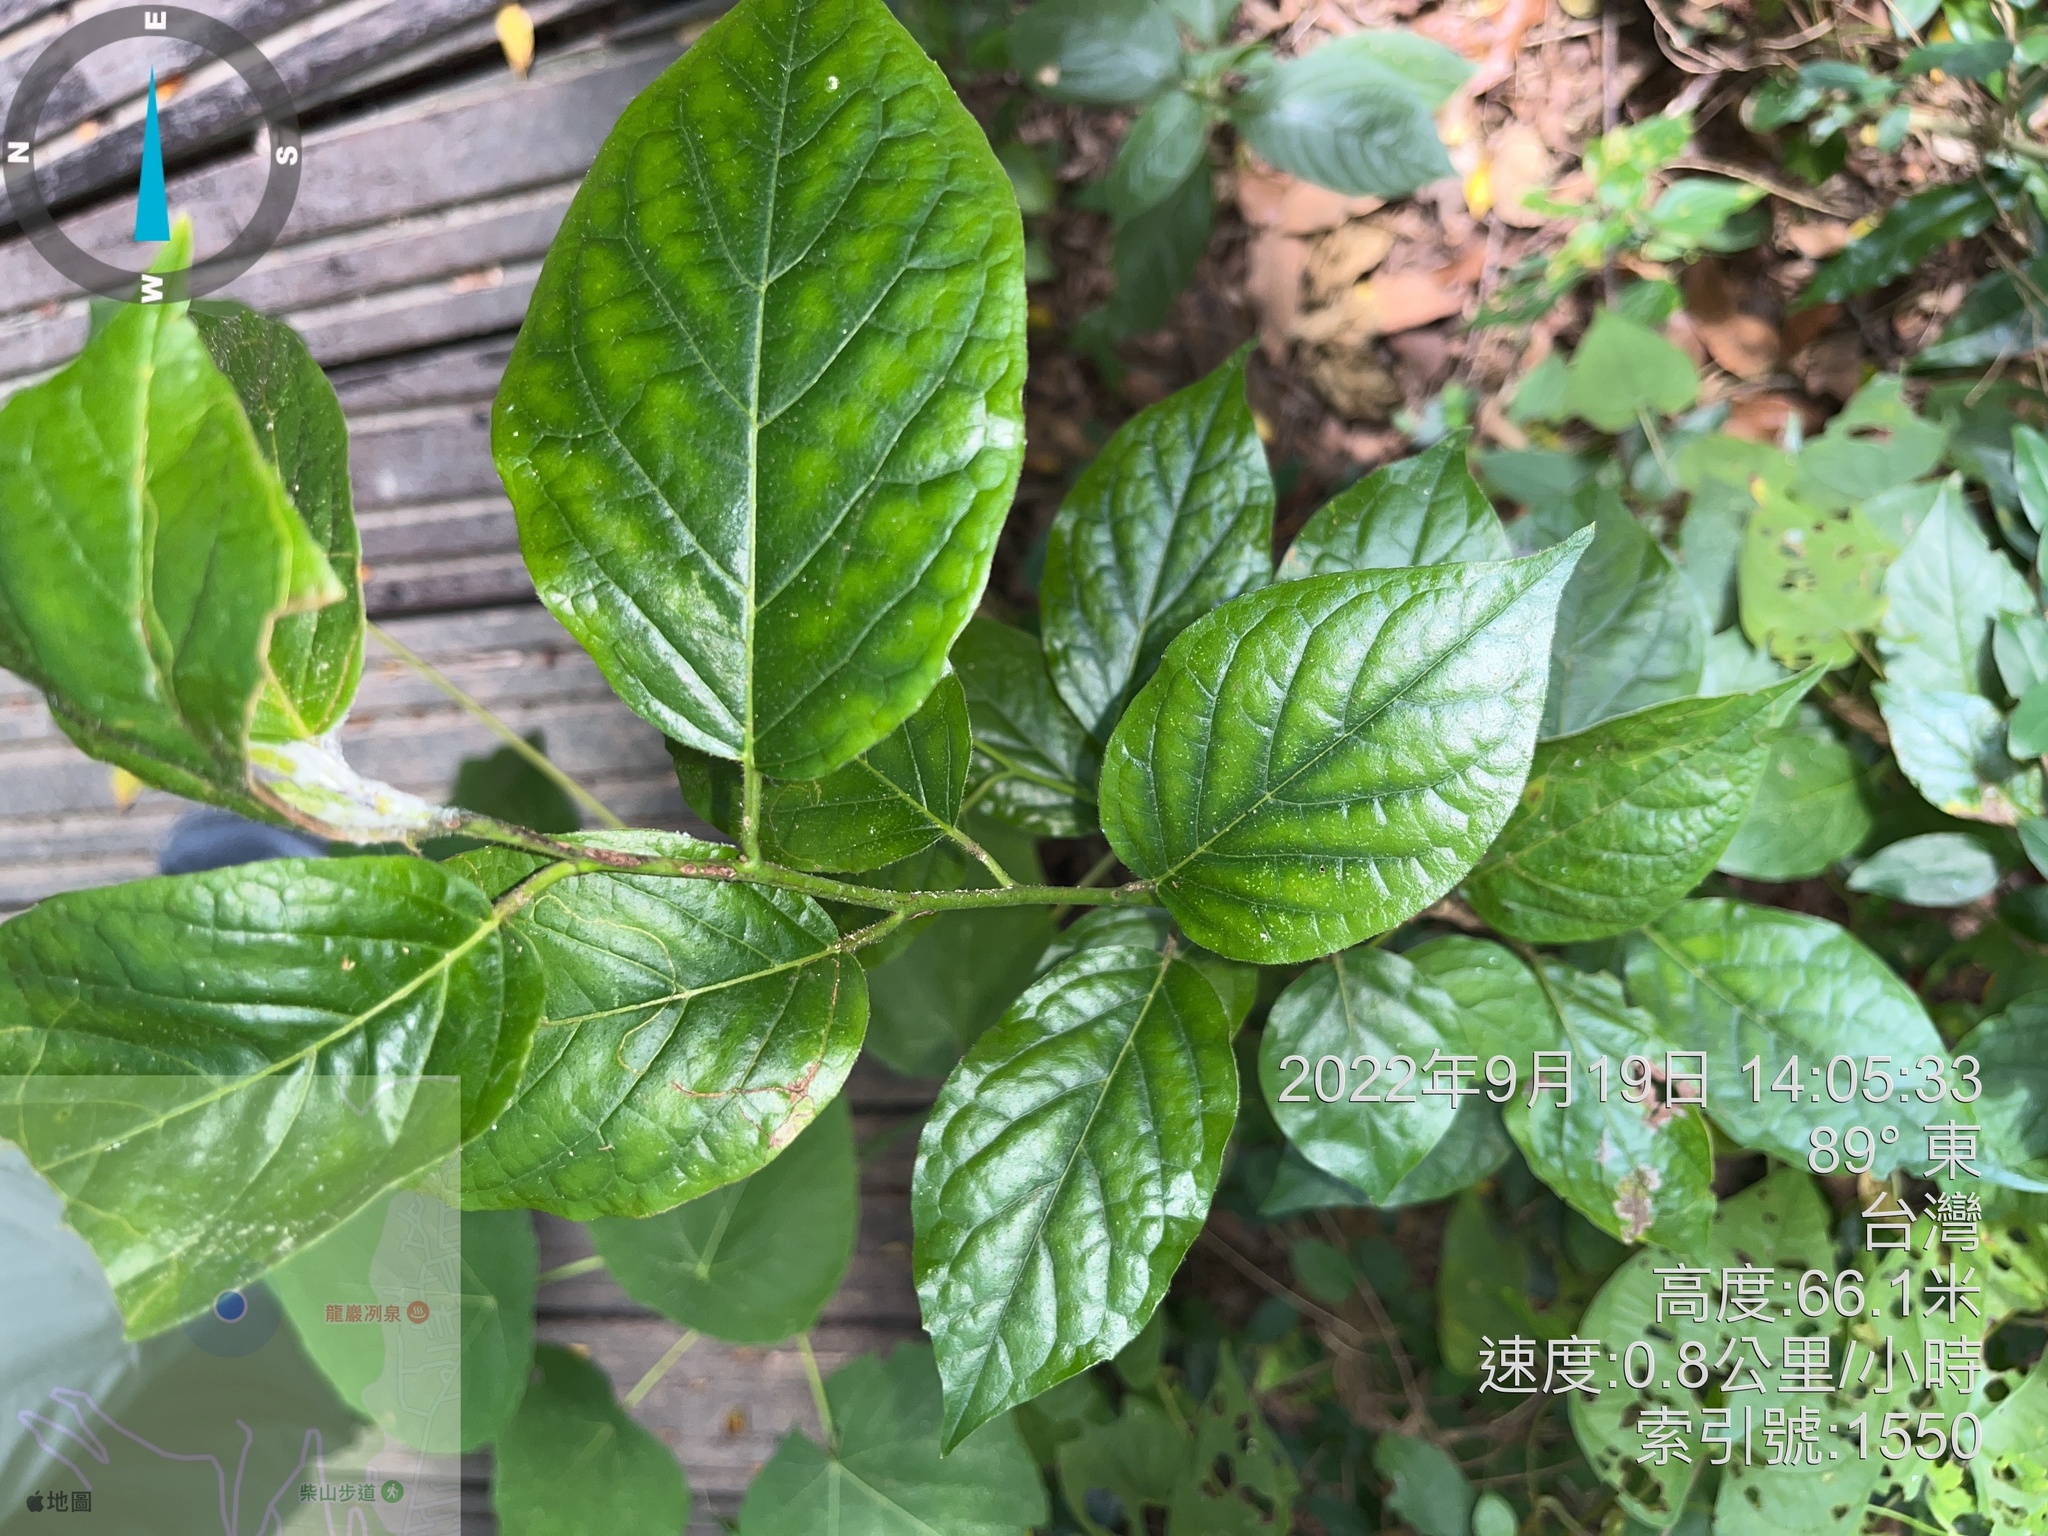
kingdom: Plantae
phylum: Tracheophyta
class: Magnoliopsida
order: Boraginales
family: Ehretiaceae
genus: Ehretia
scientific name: Ehretia resinosa
